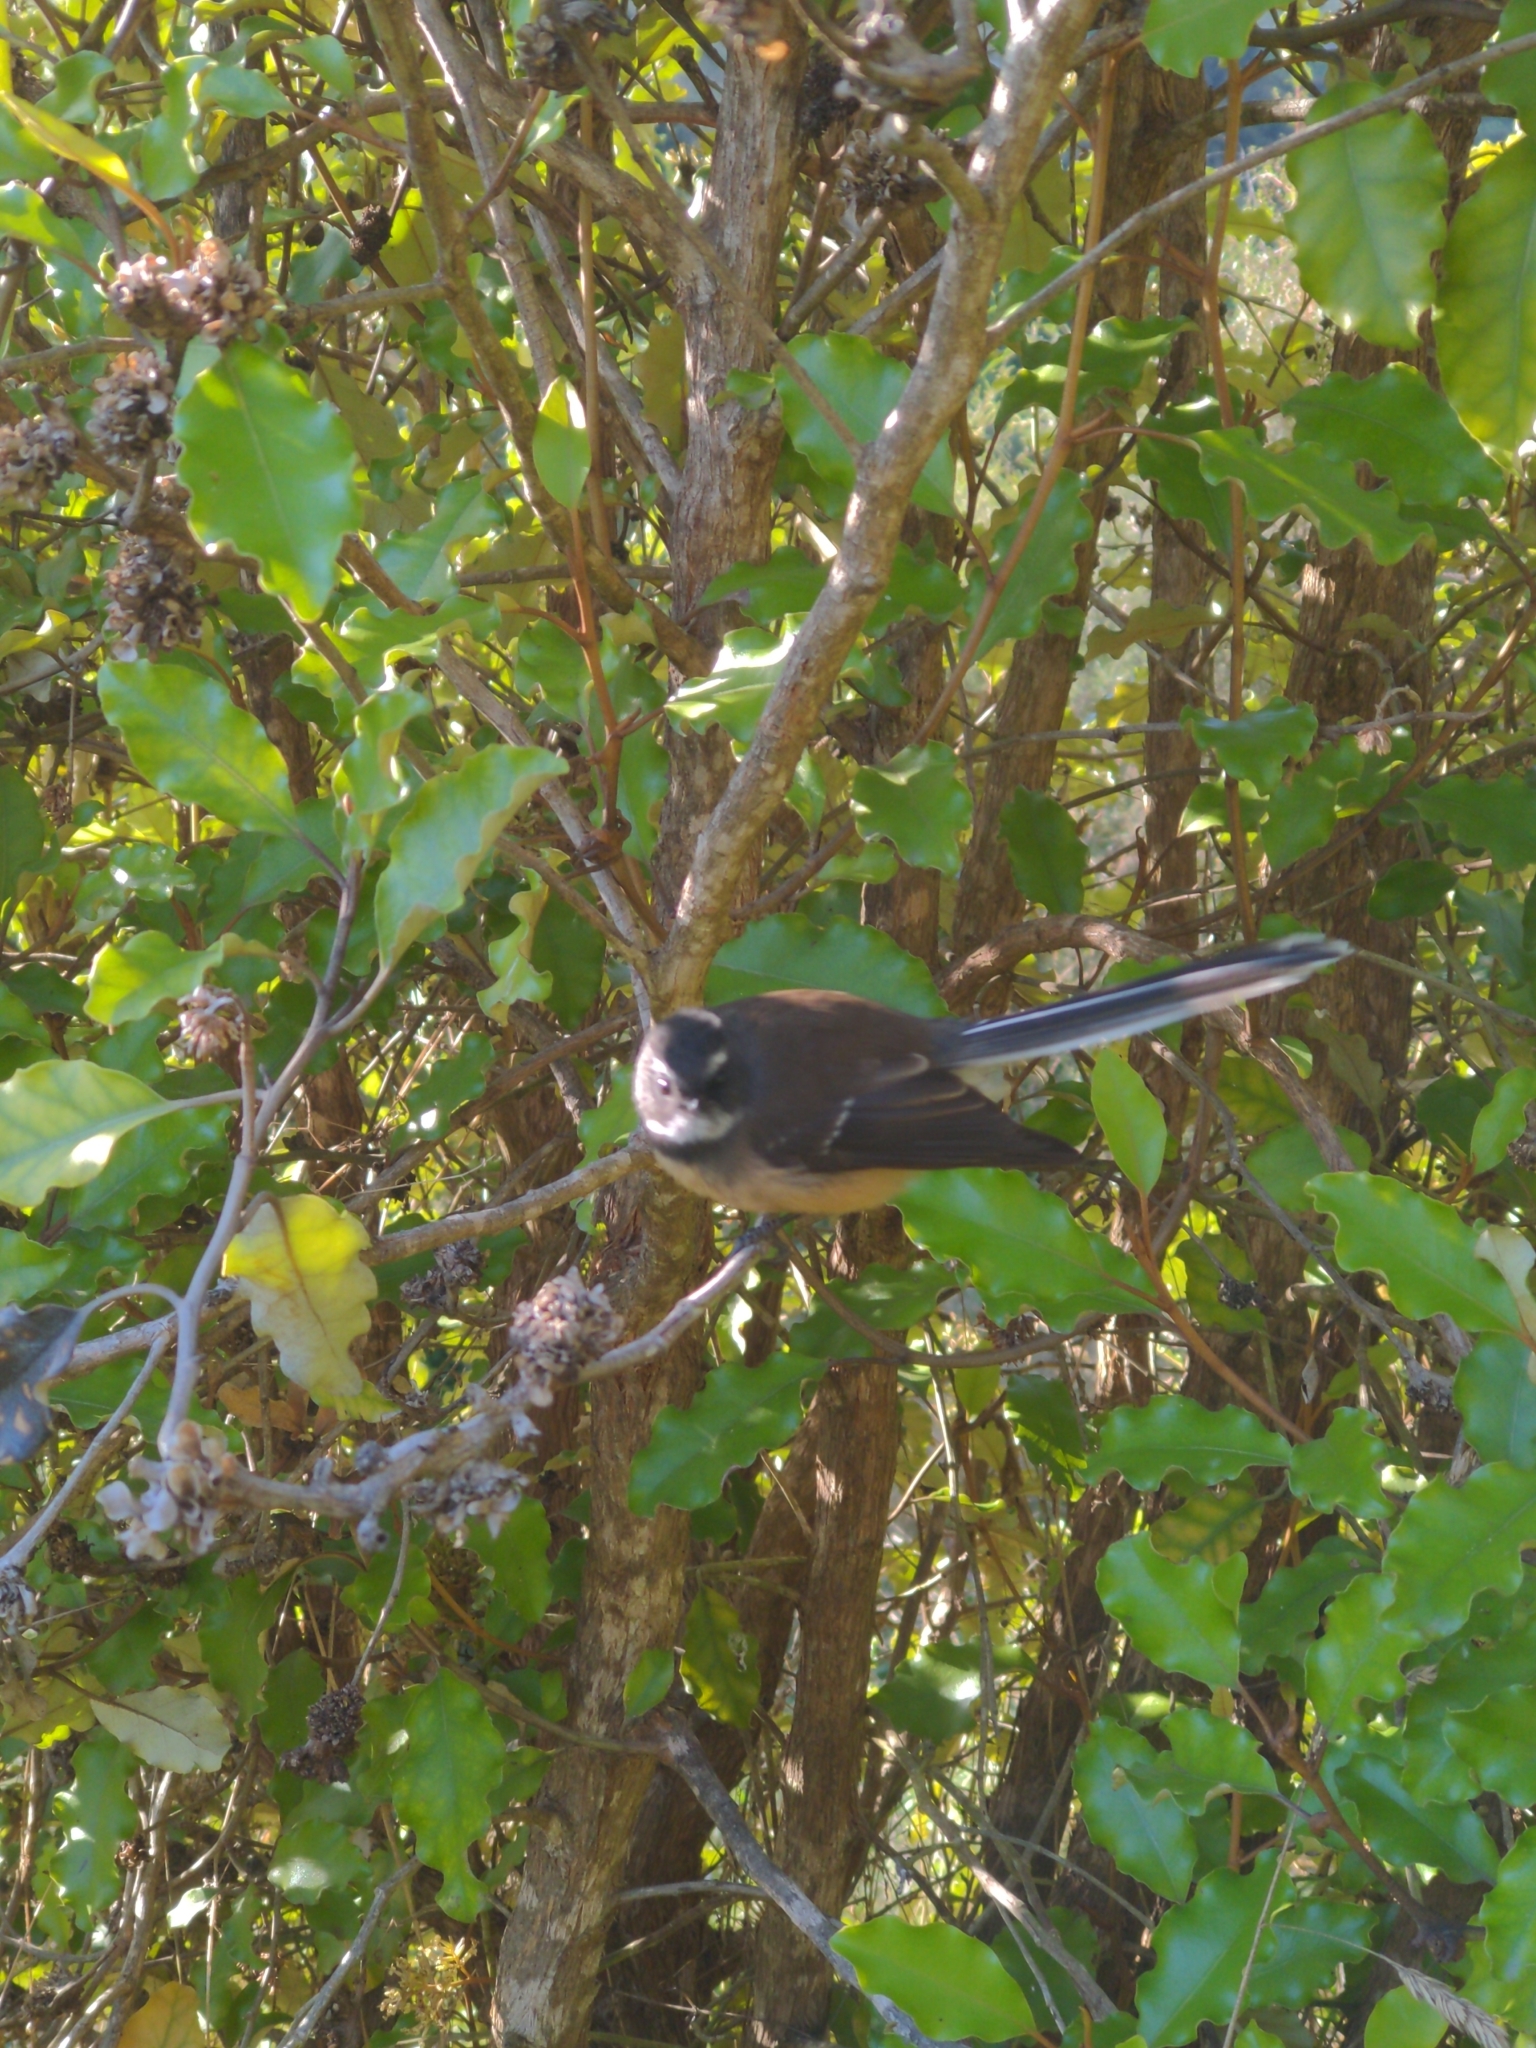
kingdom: Animalia
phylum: Chordata
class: Aves
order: Passeriformes
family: Rhipiduridae
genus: Rhipidura
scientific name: Rhipidura fuliginosa
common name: New zealand fantail
